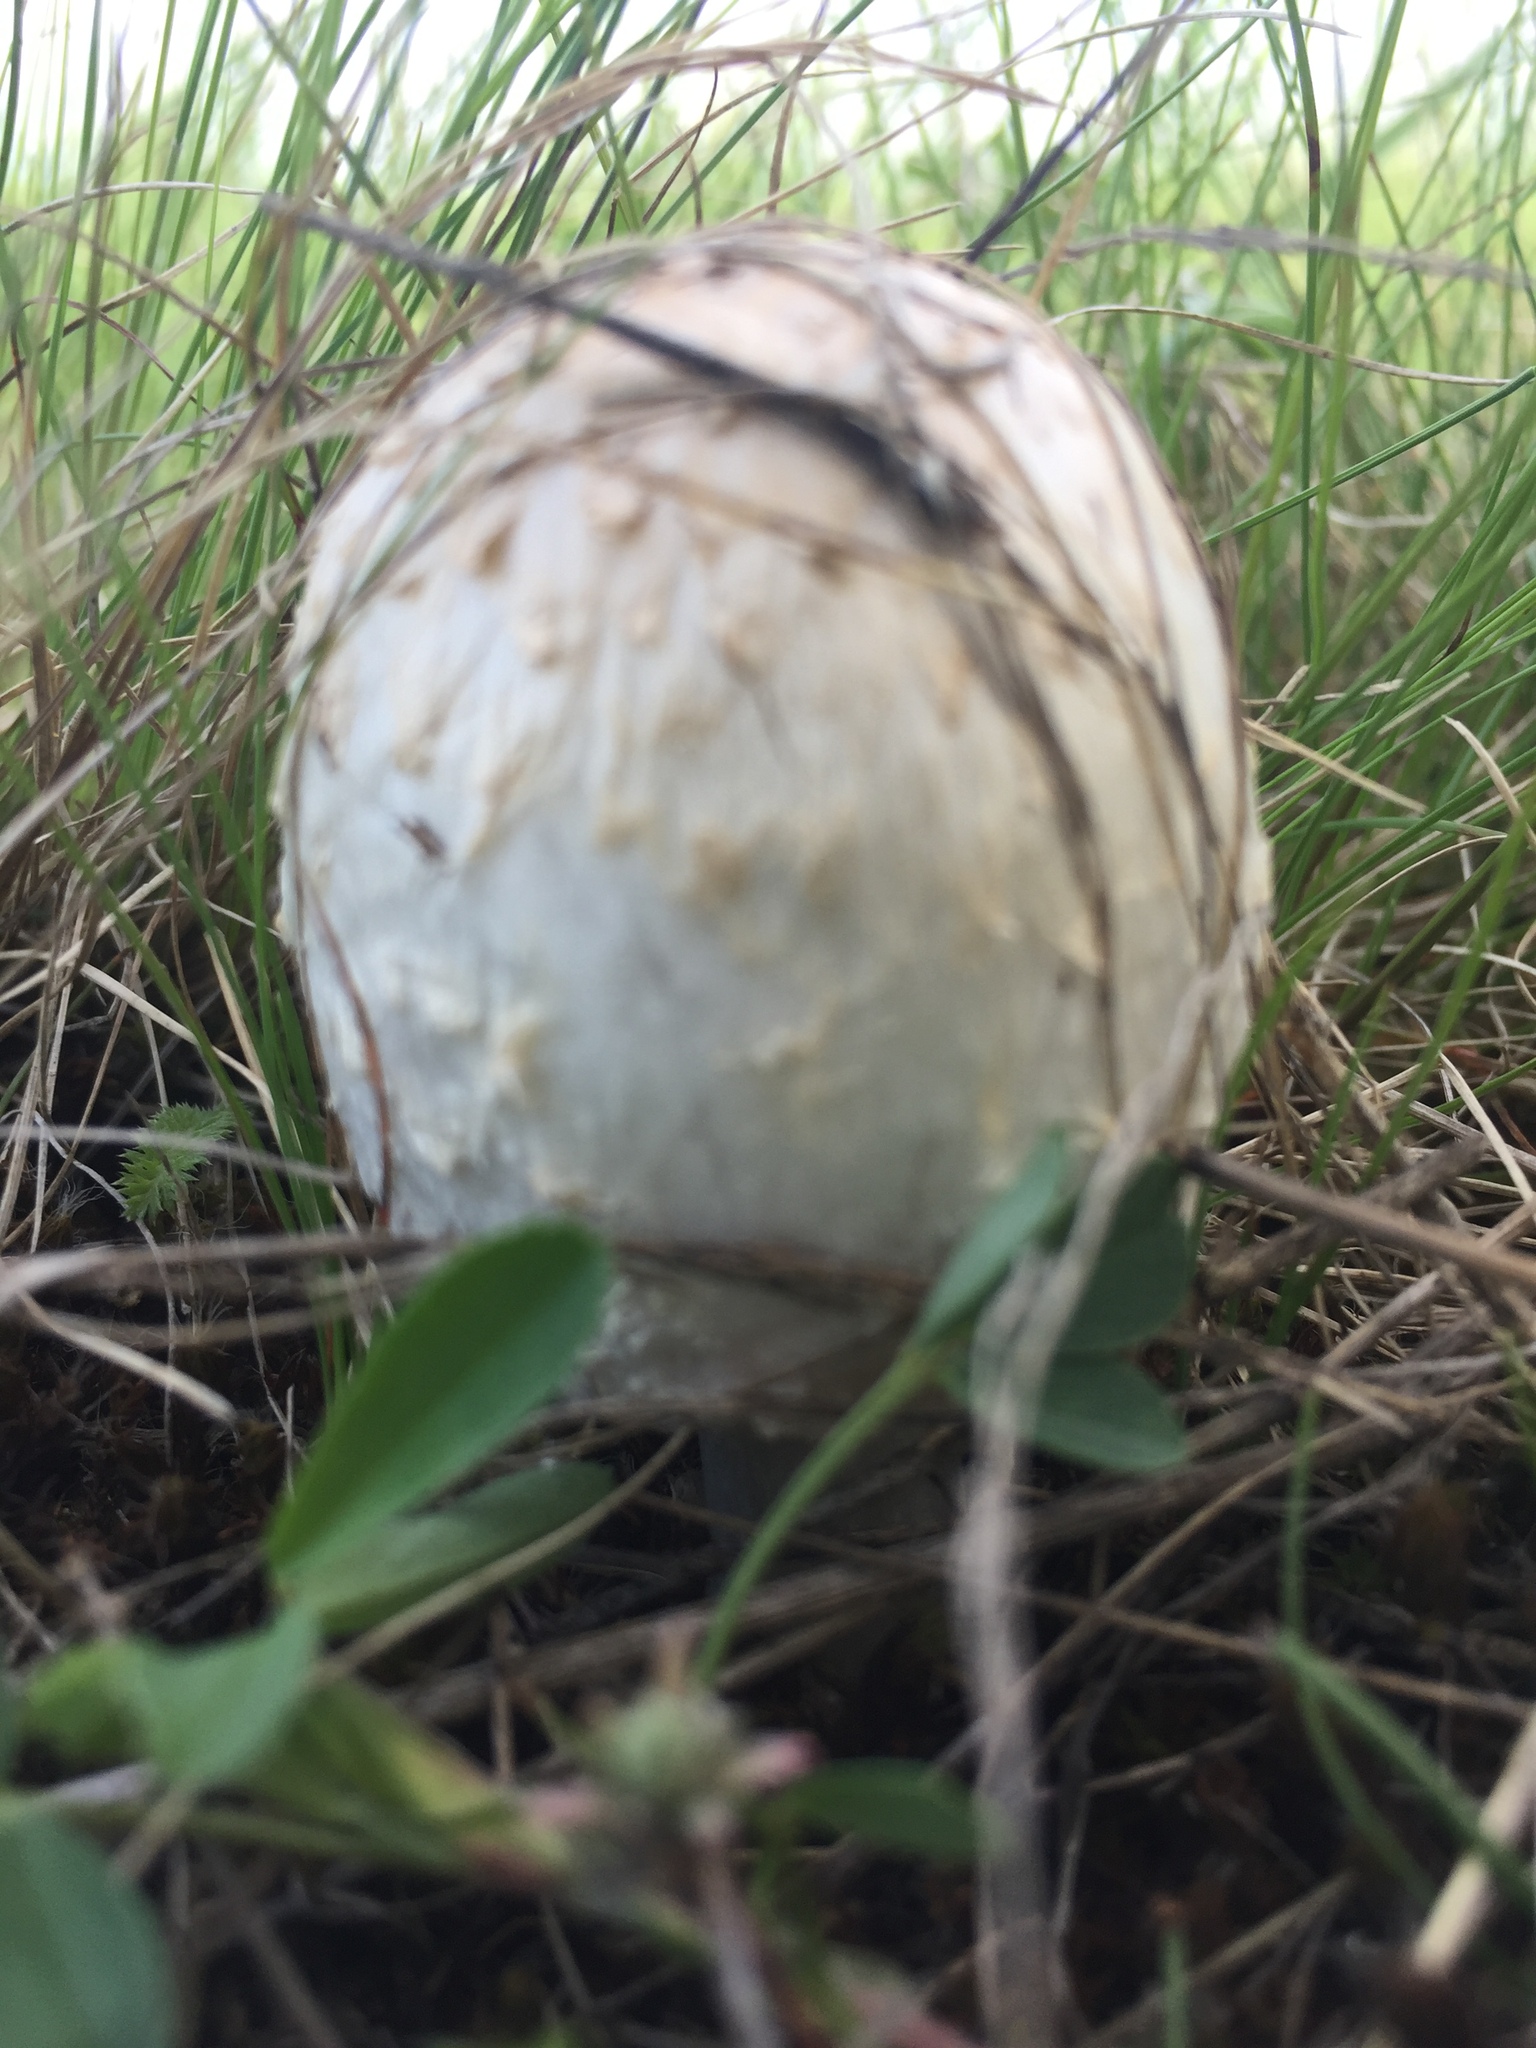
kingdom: Fungi
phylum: Basidiomycota
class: Agaricomycetes
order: Agaricales
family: Agaricaceae
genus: Coprinus
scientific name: Coprinus comatus
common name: Lawyer's wig
